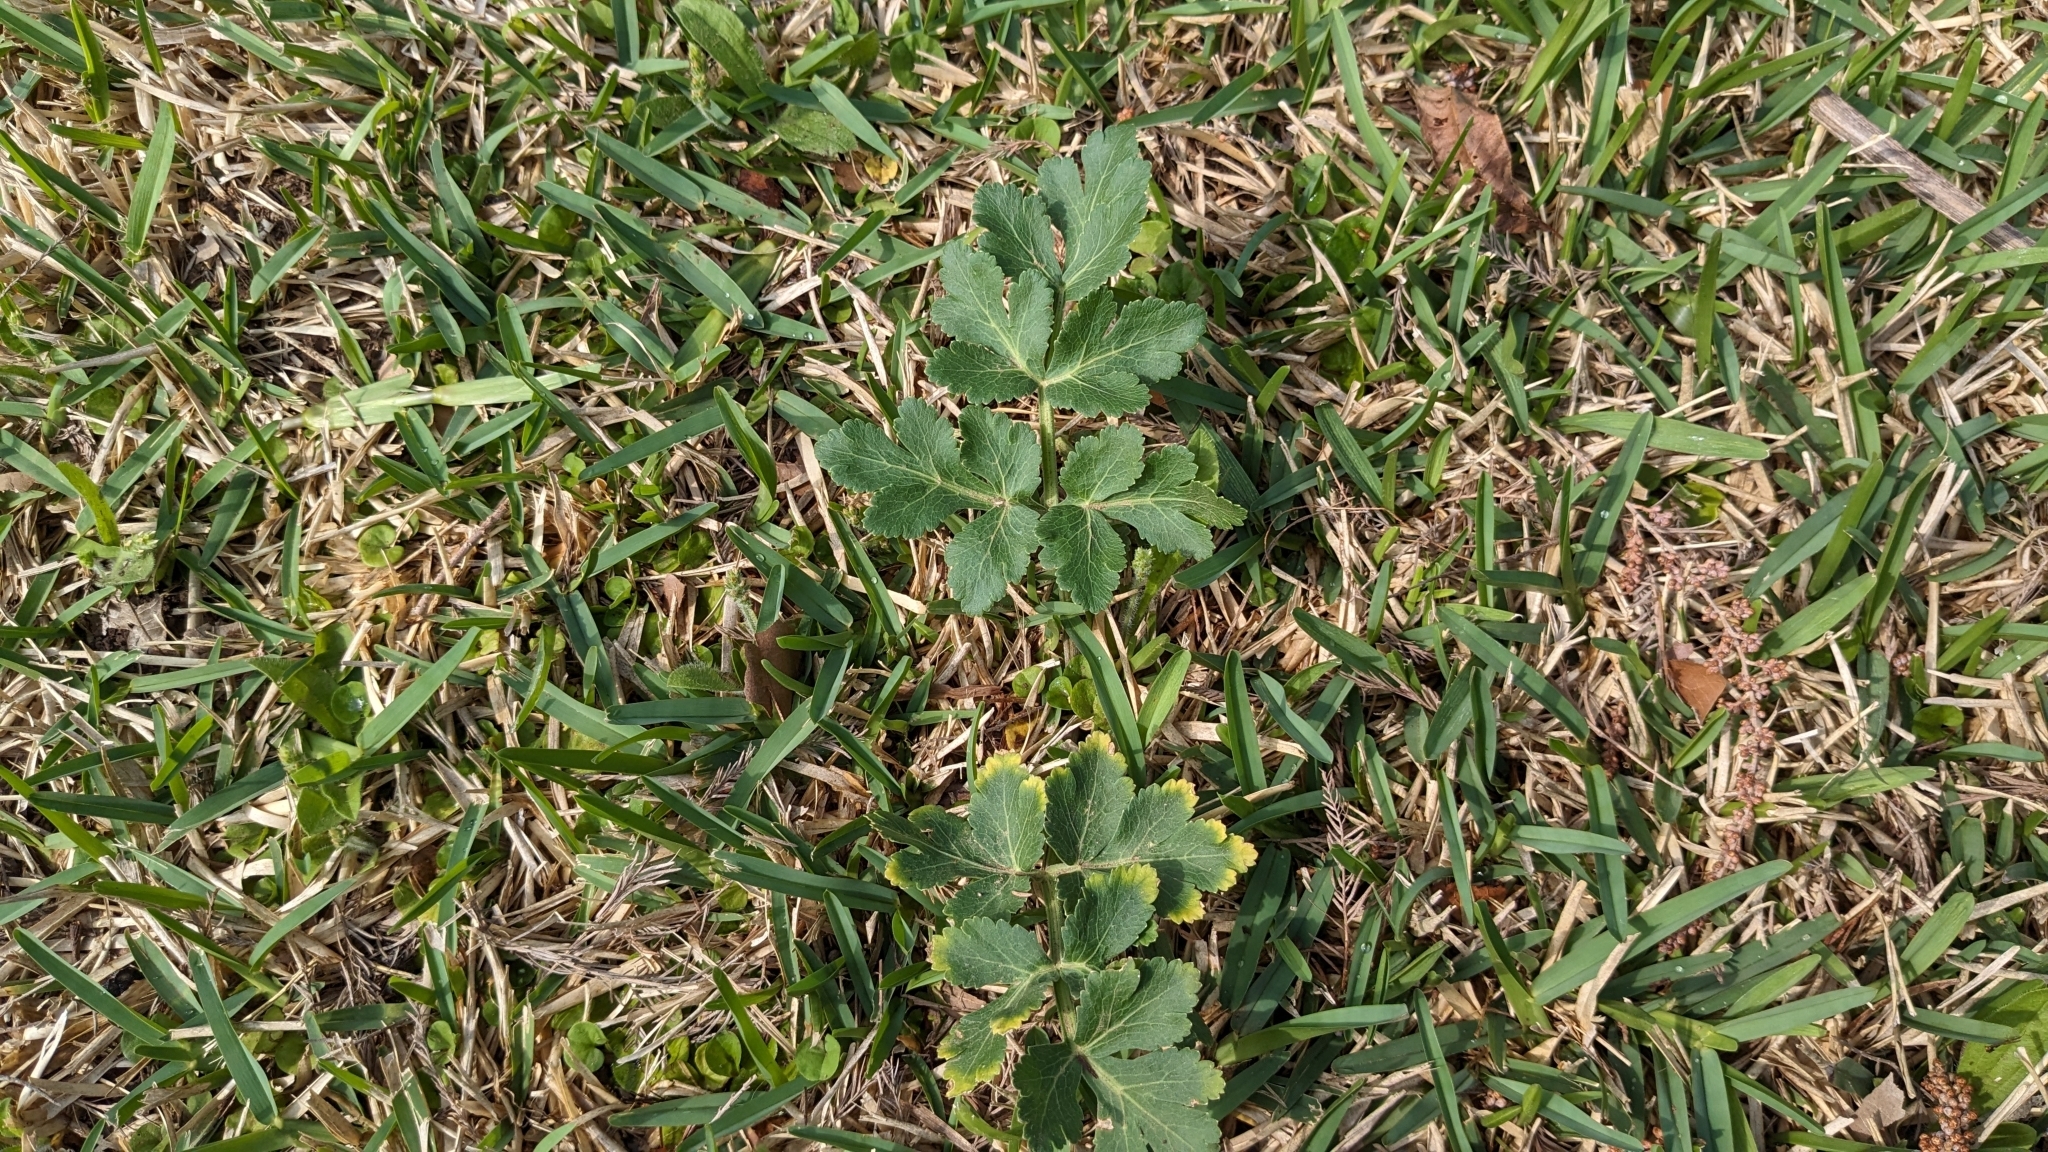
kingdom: Plantae
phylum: Tracheophyta
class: Magnoliopsida
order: Apiales
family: Apiaceae
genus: Polytaenia
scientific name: Polytaenia texana
